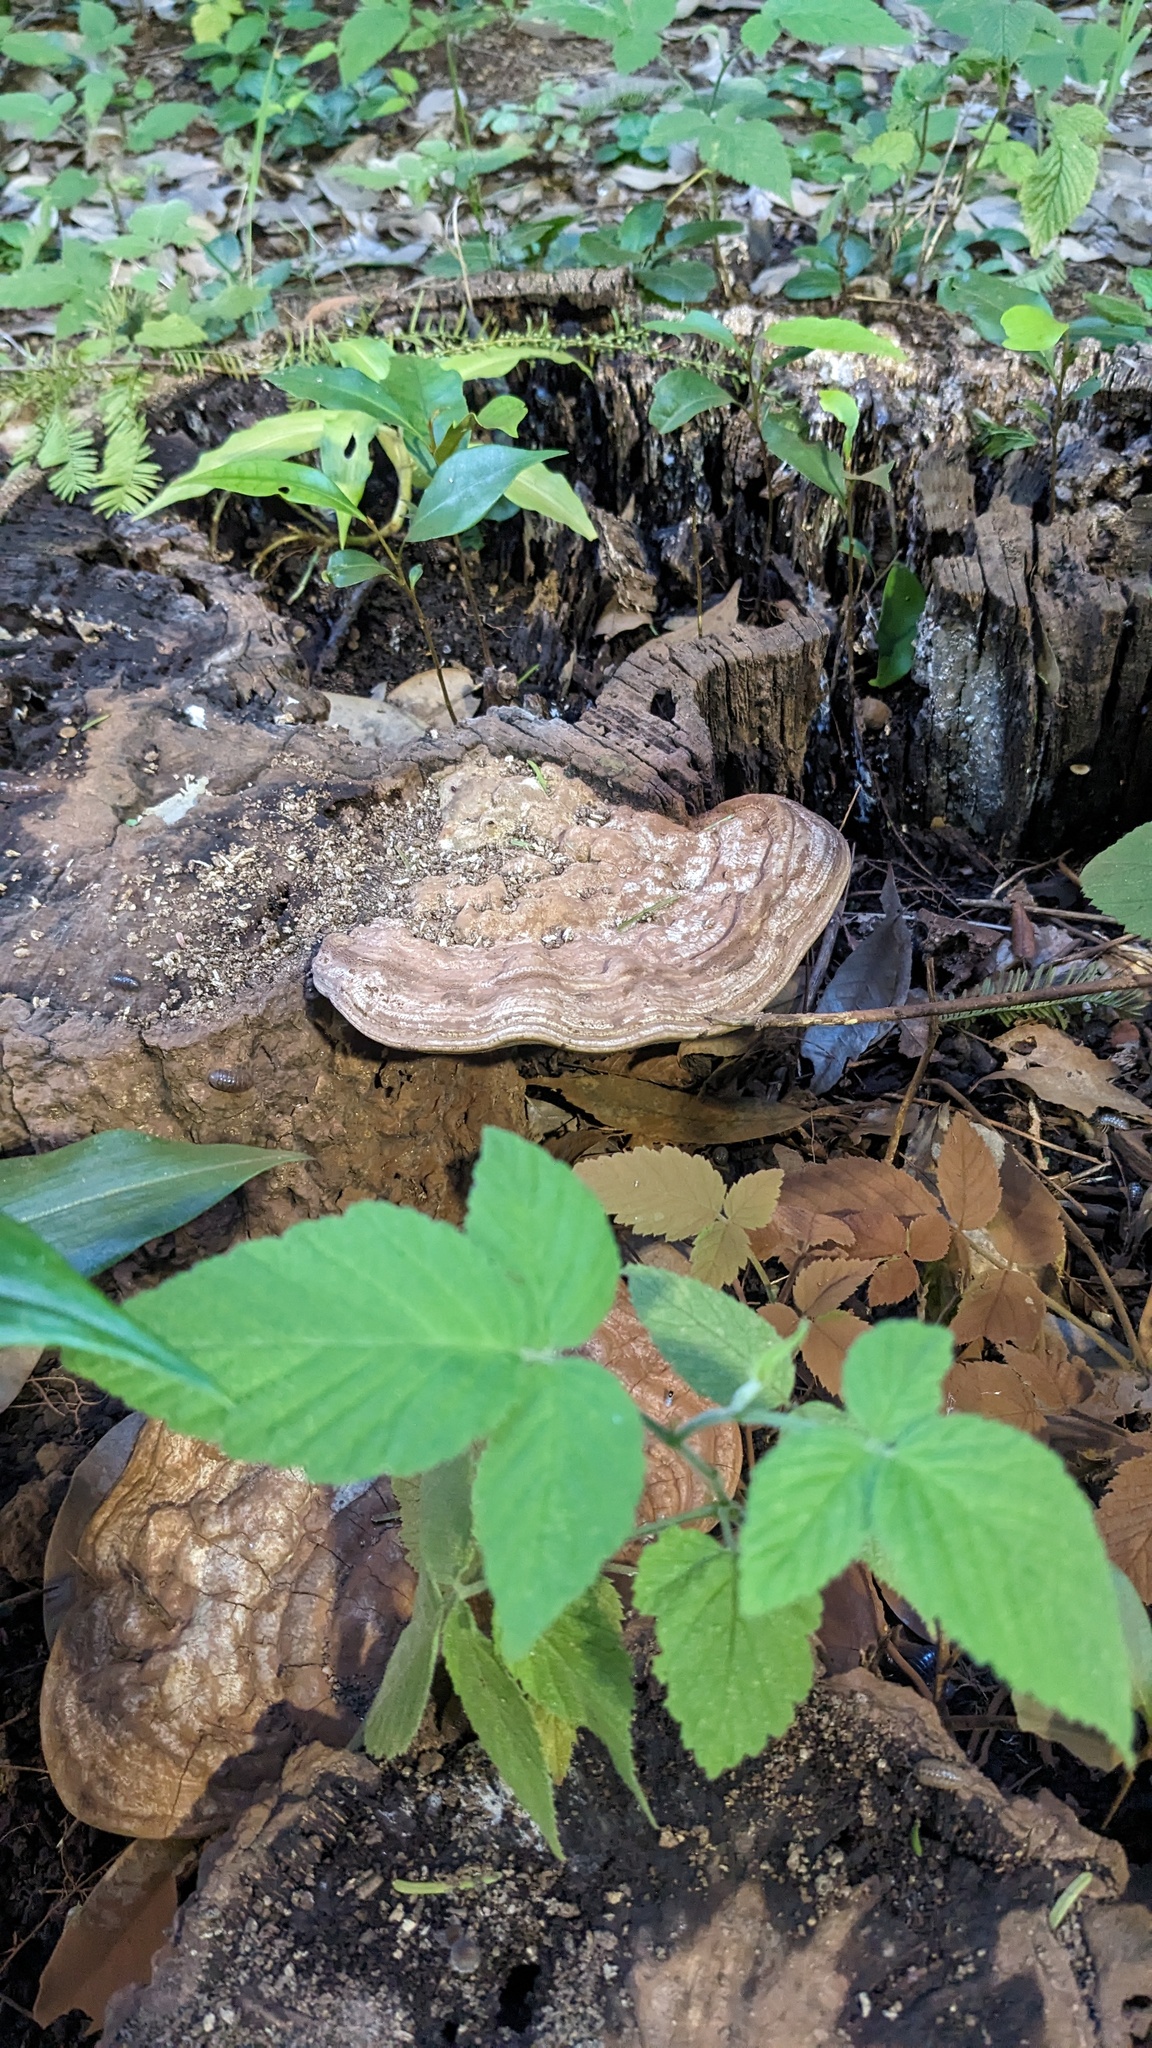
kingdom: Fungi
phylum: Basidiomycota
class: Agaricomycetes
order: Polyporales
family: Polyporaceae
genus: Ganoderma
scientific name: Ganoderma applanatum
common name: Artist's bracket
